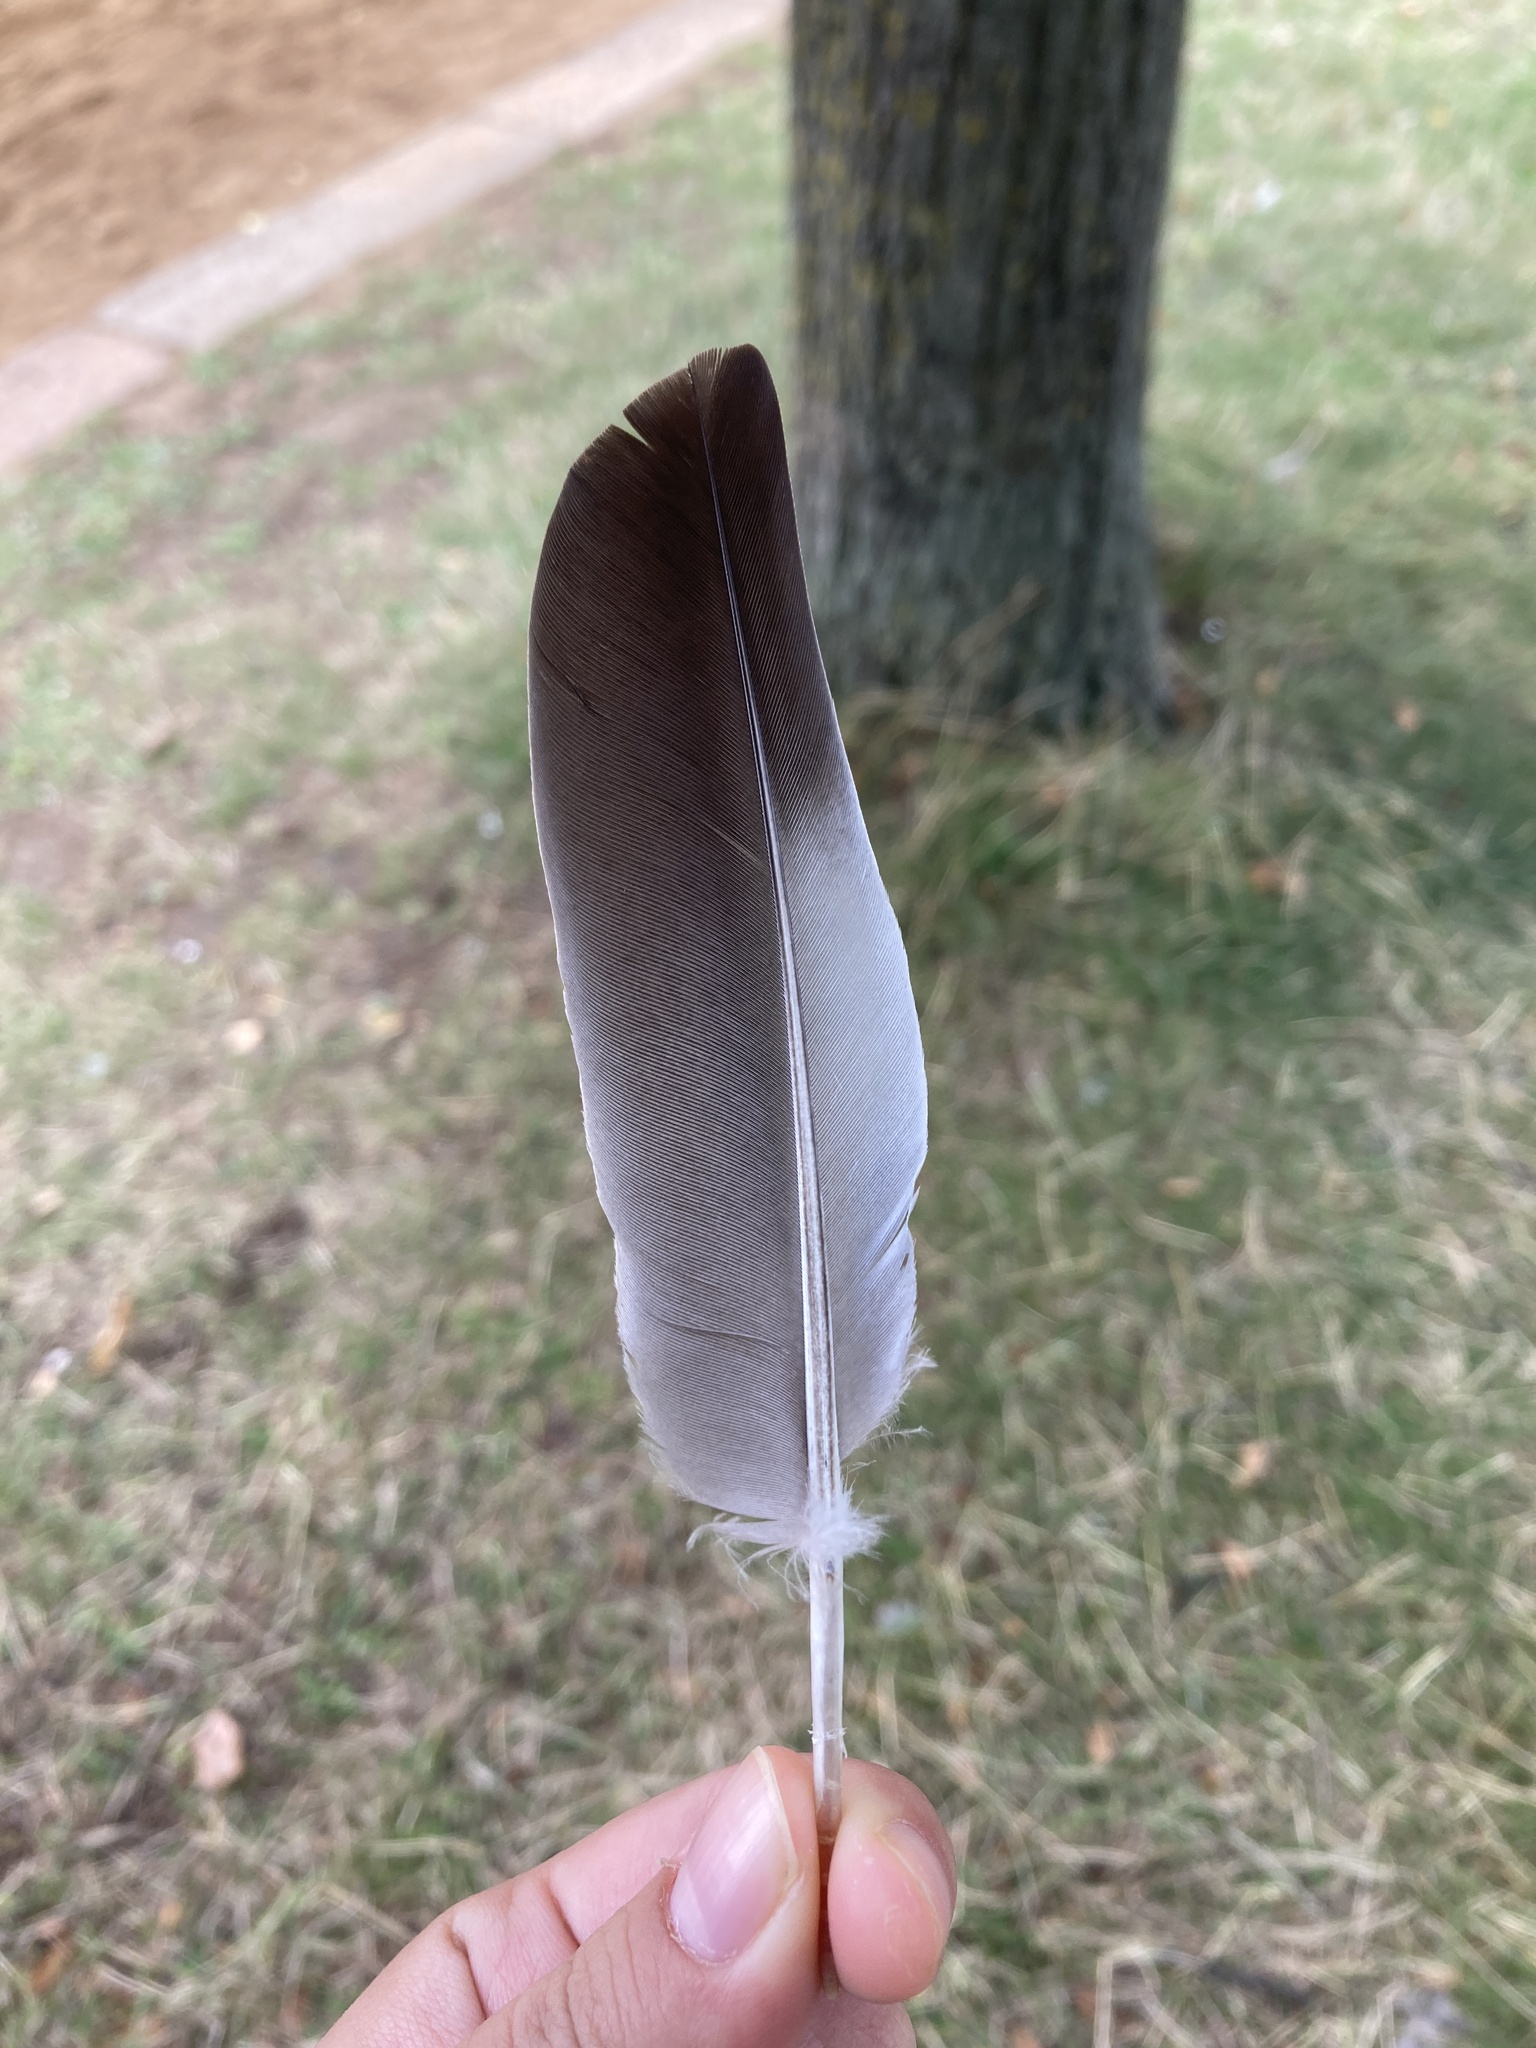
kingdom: Animalia
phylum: Chordata
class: Aves
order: Columbiformes
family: Columbidae
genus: Columba
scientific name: Columba oenas
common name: Stock dove
